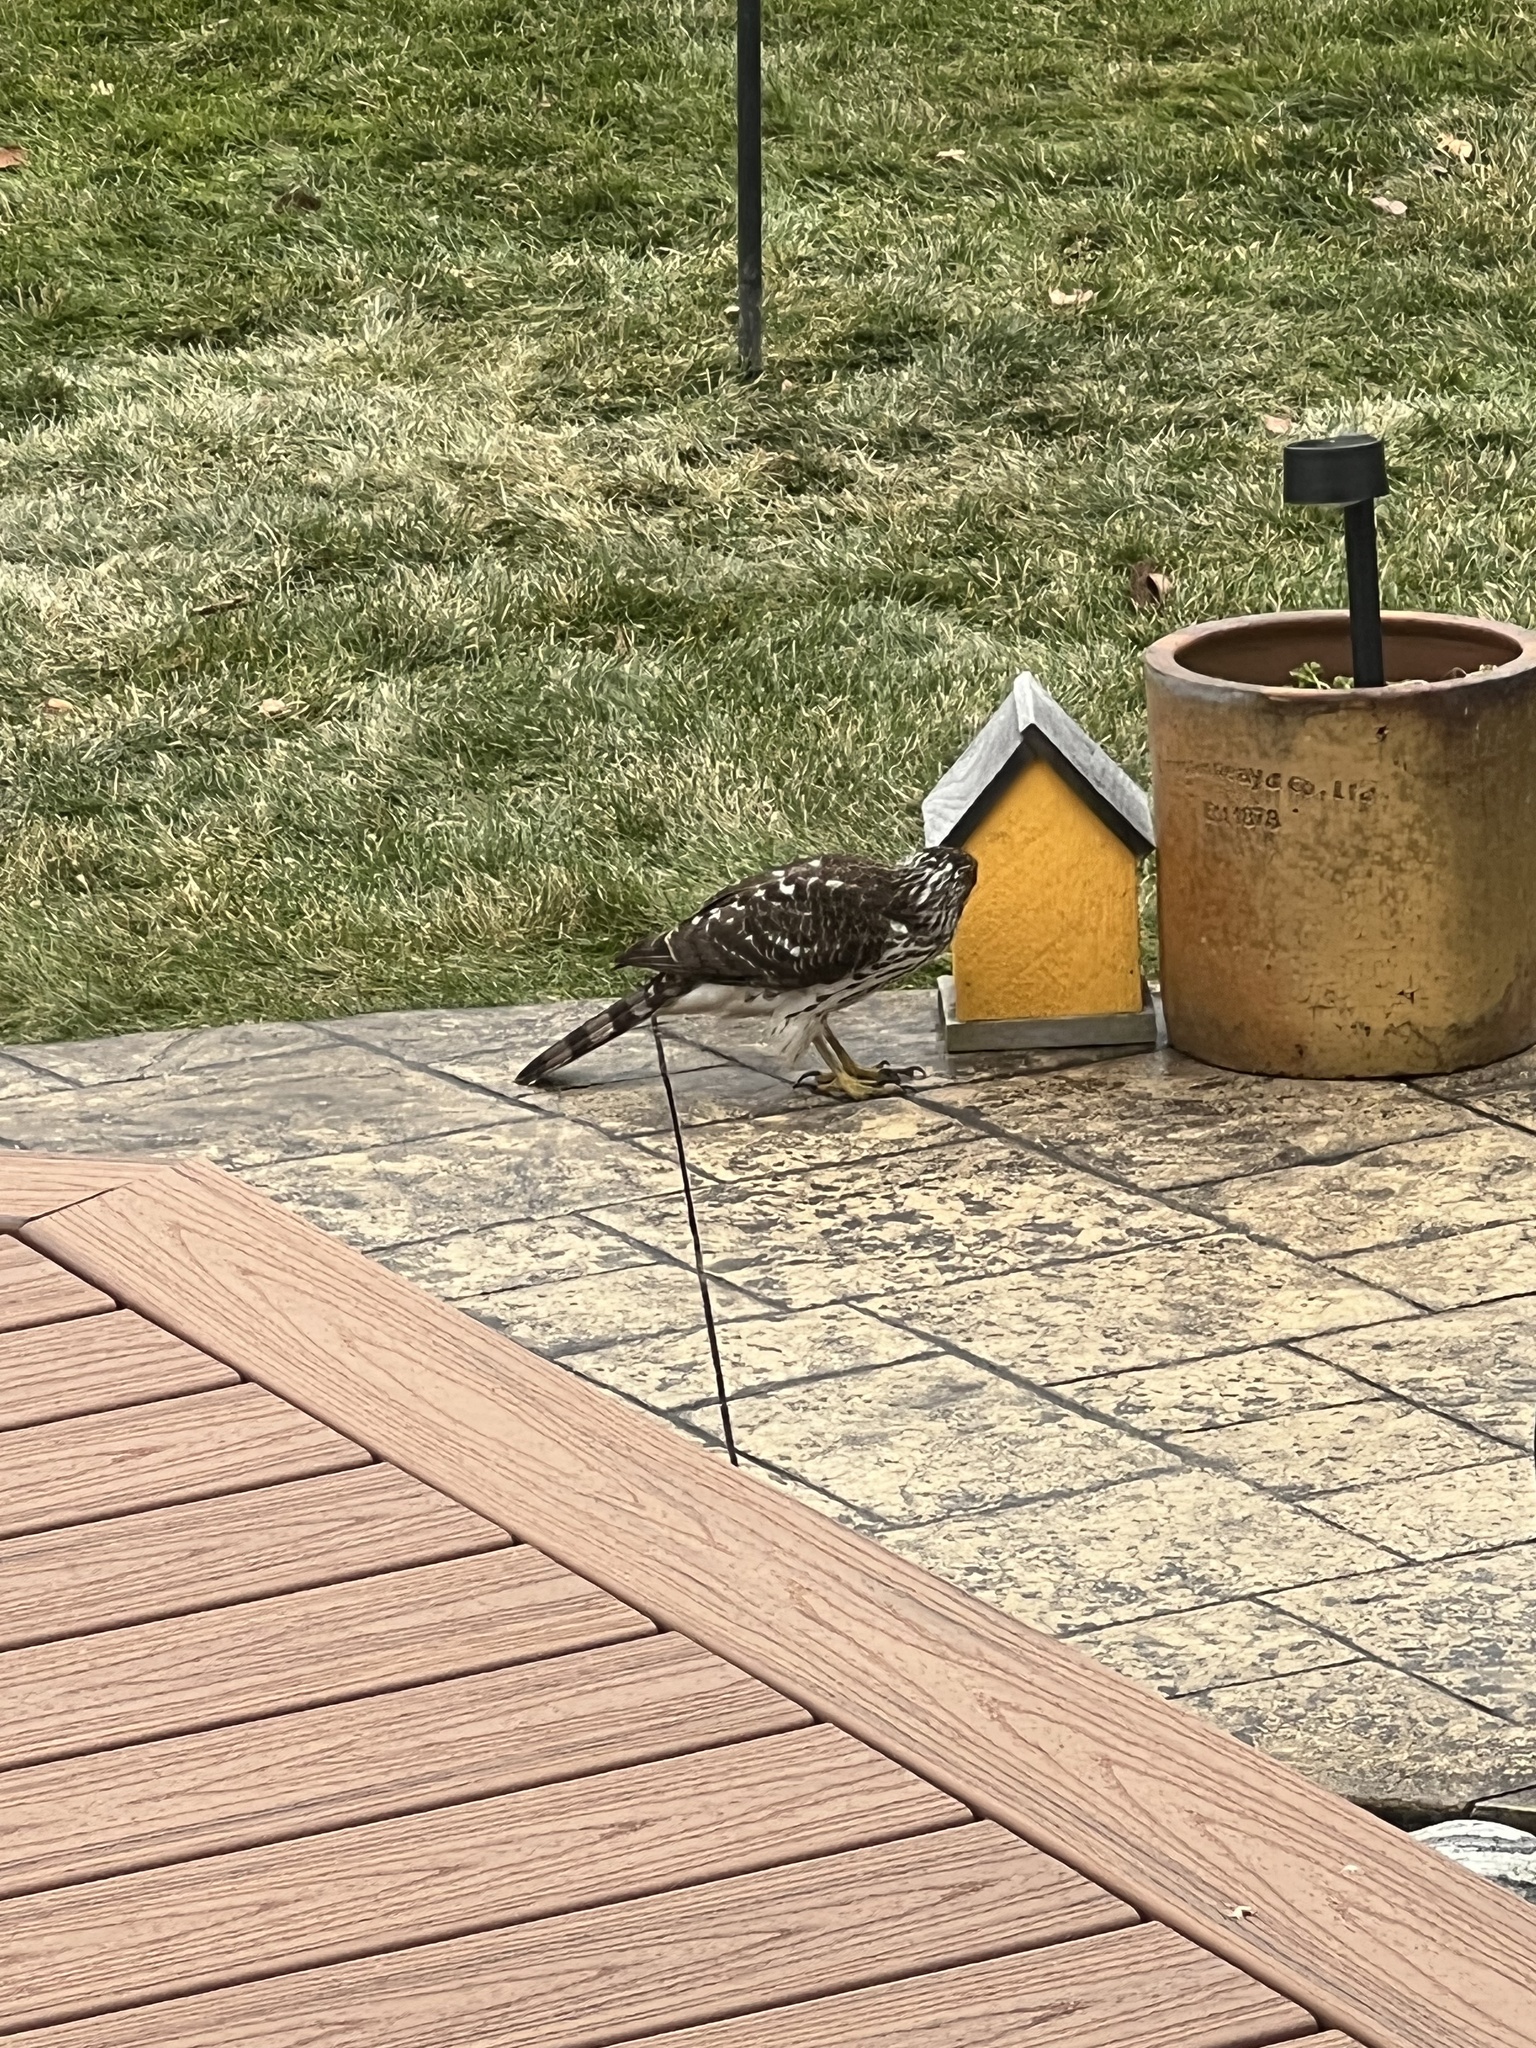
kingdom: Animalia
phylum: Chordata
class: Aves
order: Accipitriformes
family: Accipitridae
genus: Accipiter
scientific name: Accipiter cooperii
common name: Cooper's hawk
